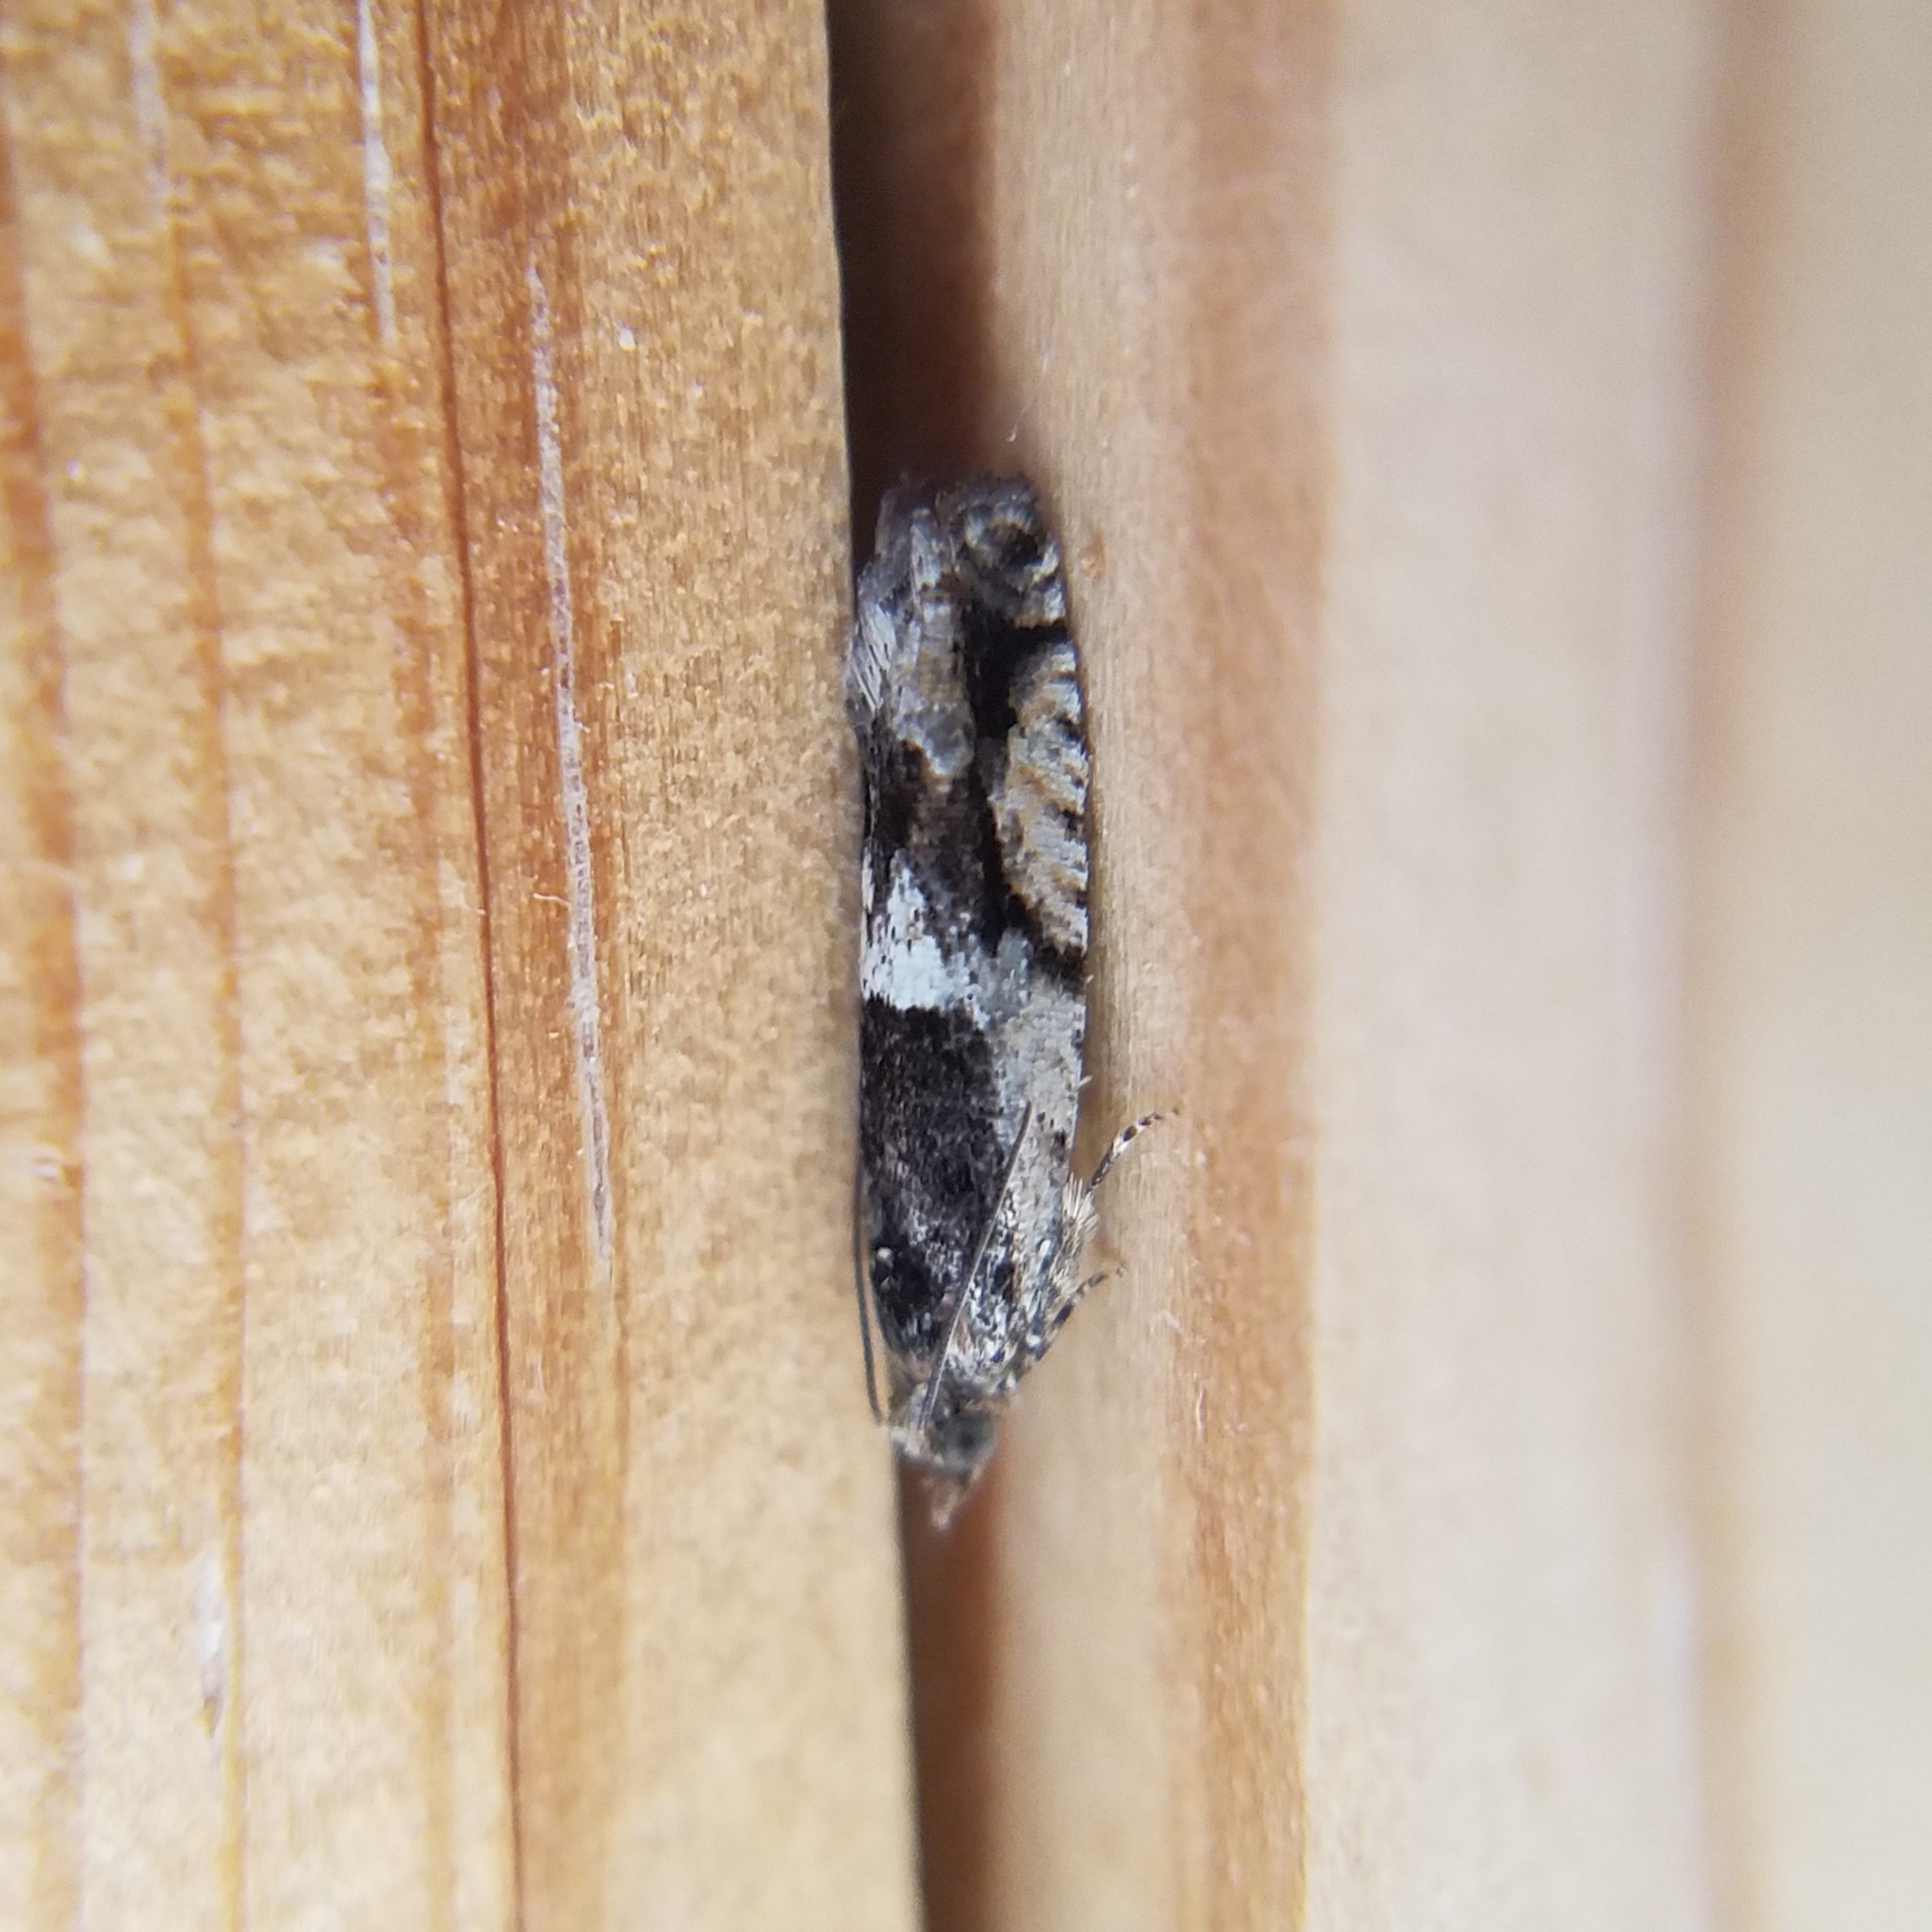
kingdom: Animalia
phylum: Arthropoda
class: Insecta
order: Lepidoptera
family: Tortricidae
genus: Chimoptesis
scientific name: Chimoptesis gerulae
